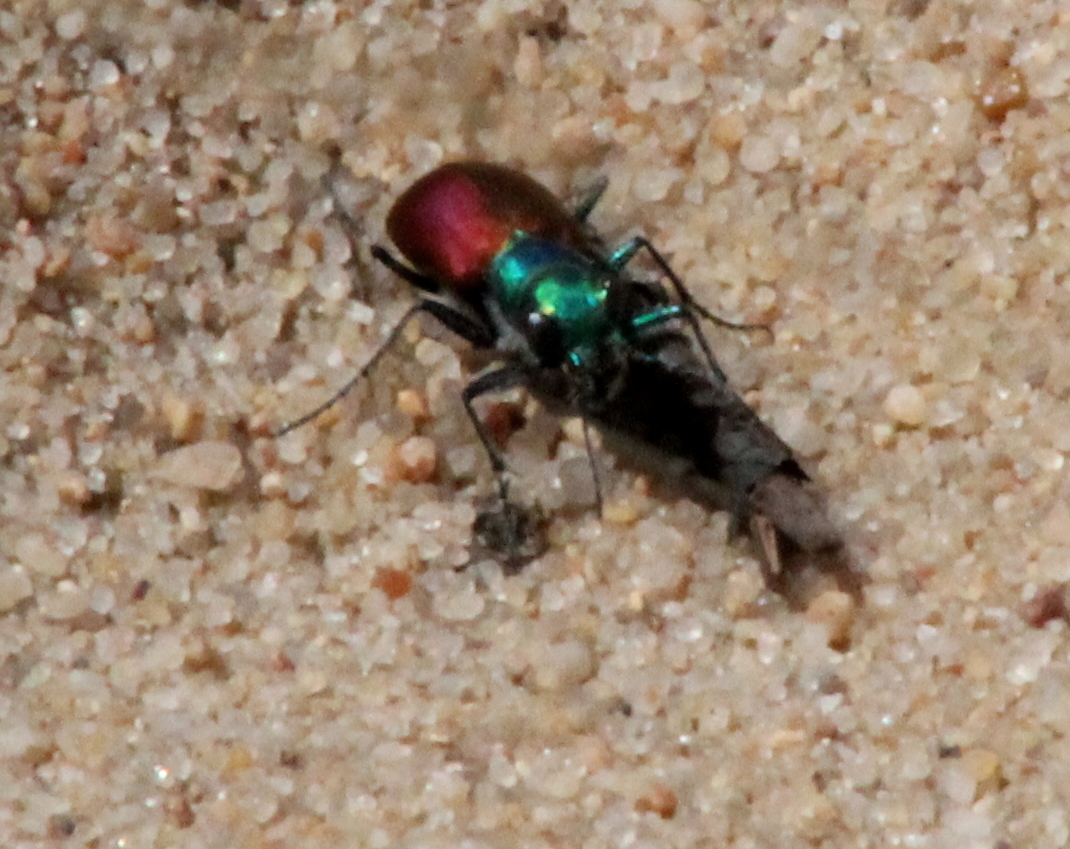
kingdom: Animalia
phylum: Arthropoda
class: Insecta
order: Coleoptera
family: Carabidae
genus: Cicindela
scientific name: Cicindela scutellaris
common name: Festive tiger beetle
